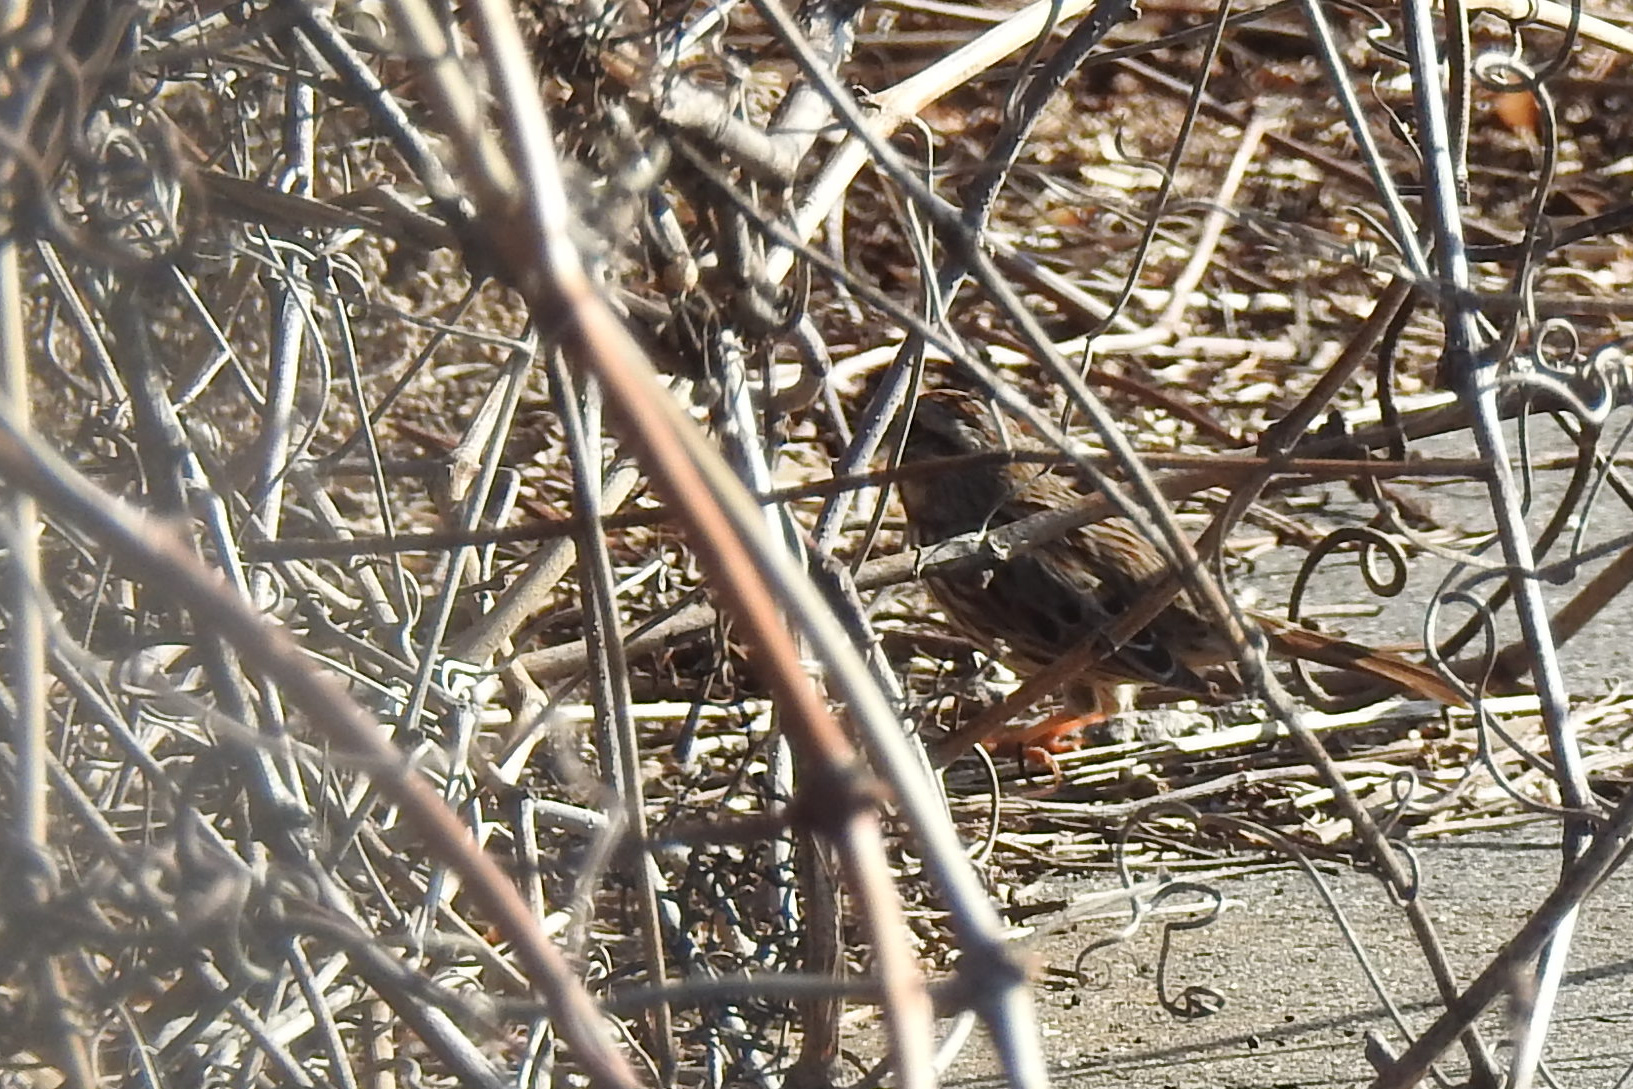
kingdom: Animalia
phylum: Chordata
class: Aves
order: Passeriformes
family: Passerellidae
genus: Melospiza
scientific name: Melospiza melodia
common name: Song sparrow
